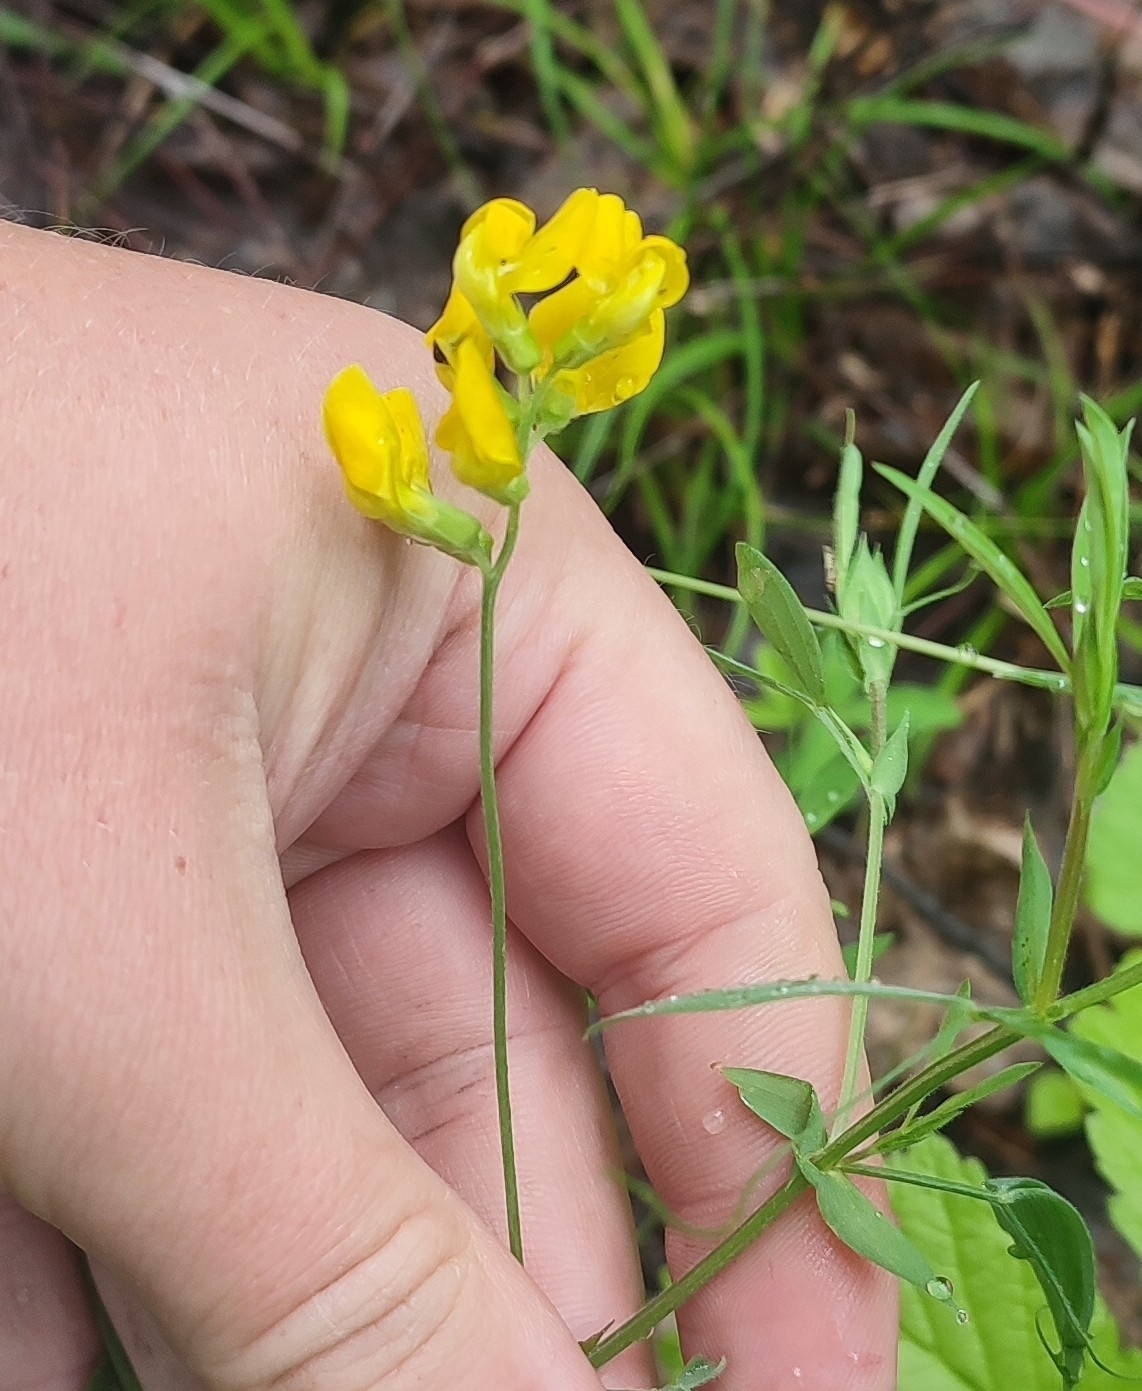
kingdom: Plantae
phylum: Tracheophyta
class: Magnoliopsida
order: Fabales
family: Fabaceae
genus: Lathyrus
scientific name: Lathyrus pratensis
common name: Meadow vetchling
